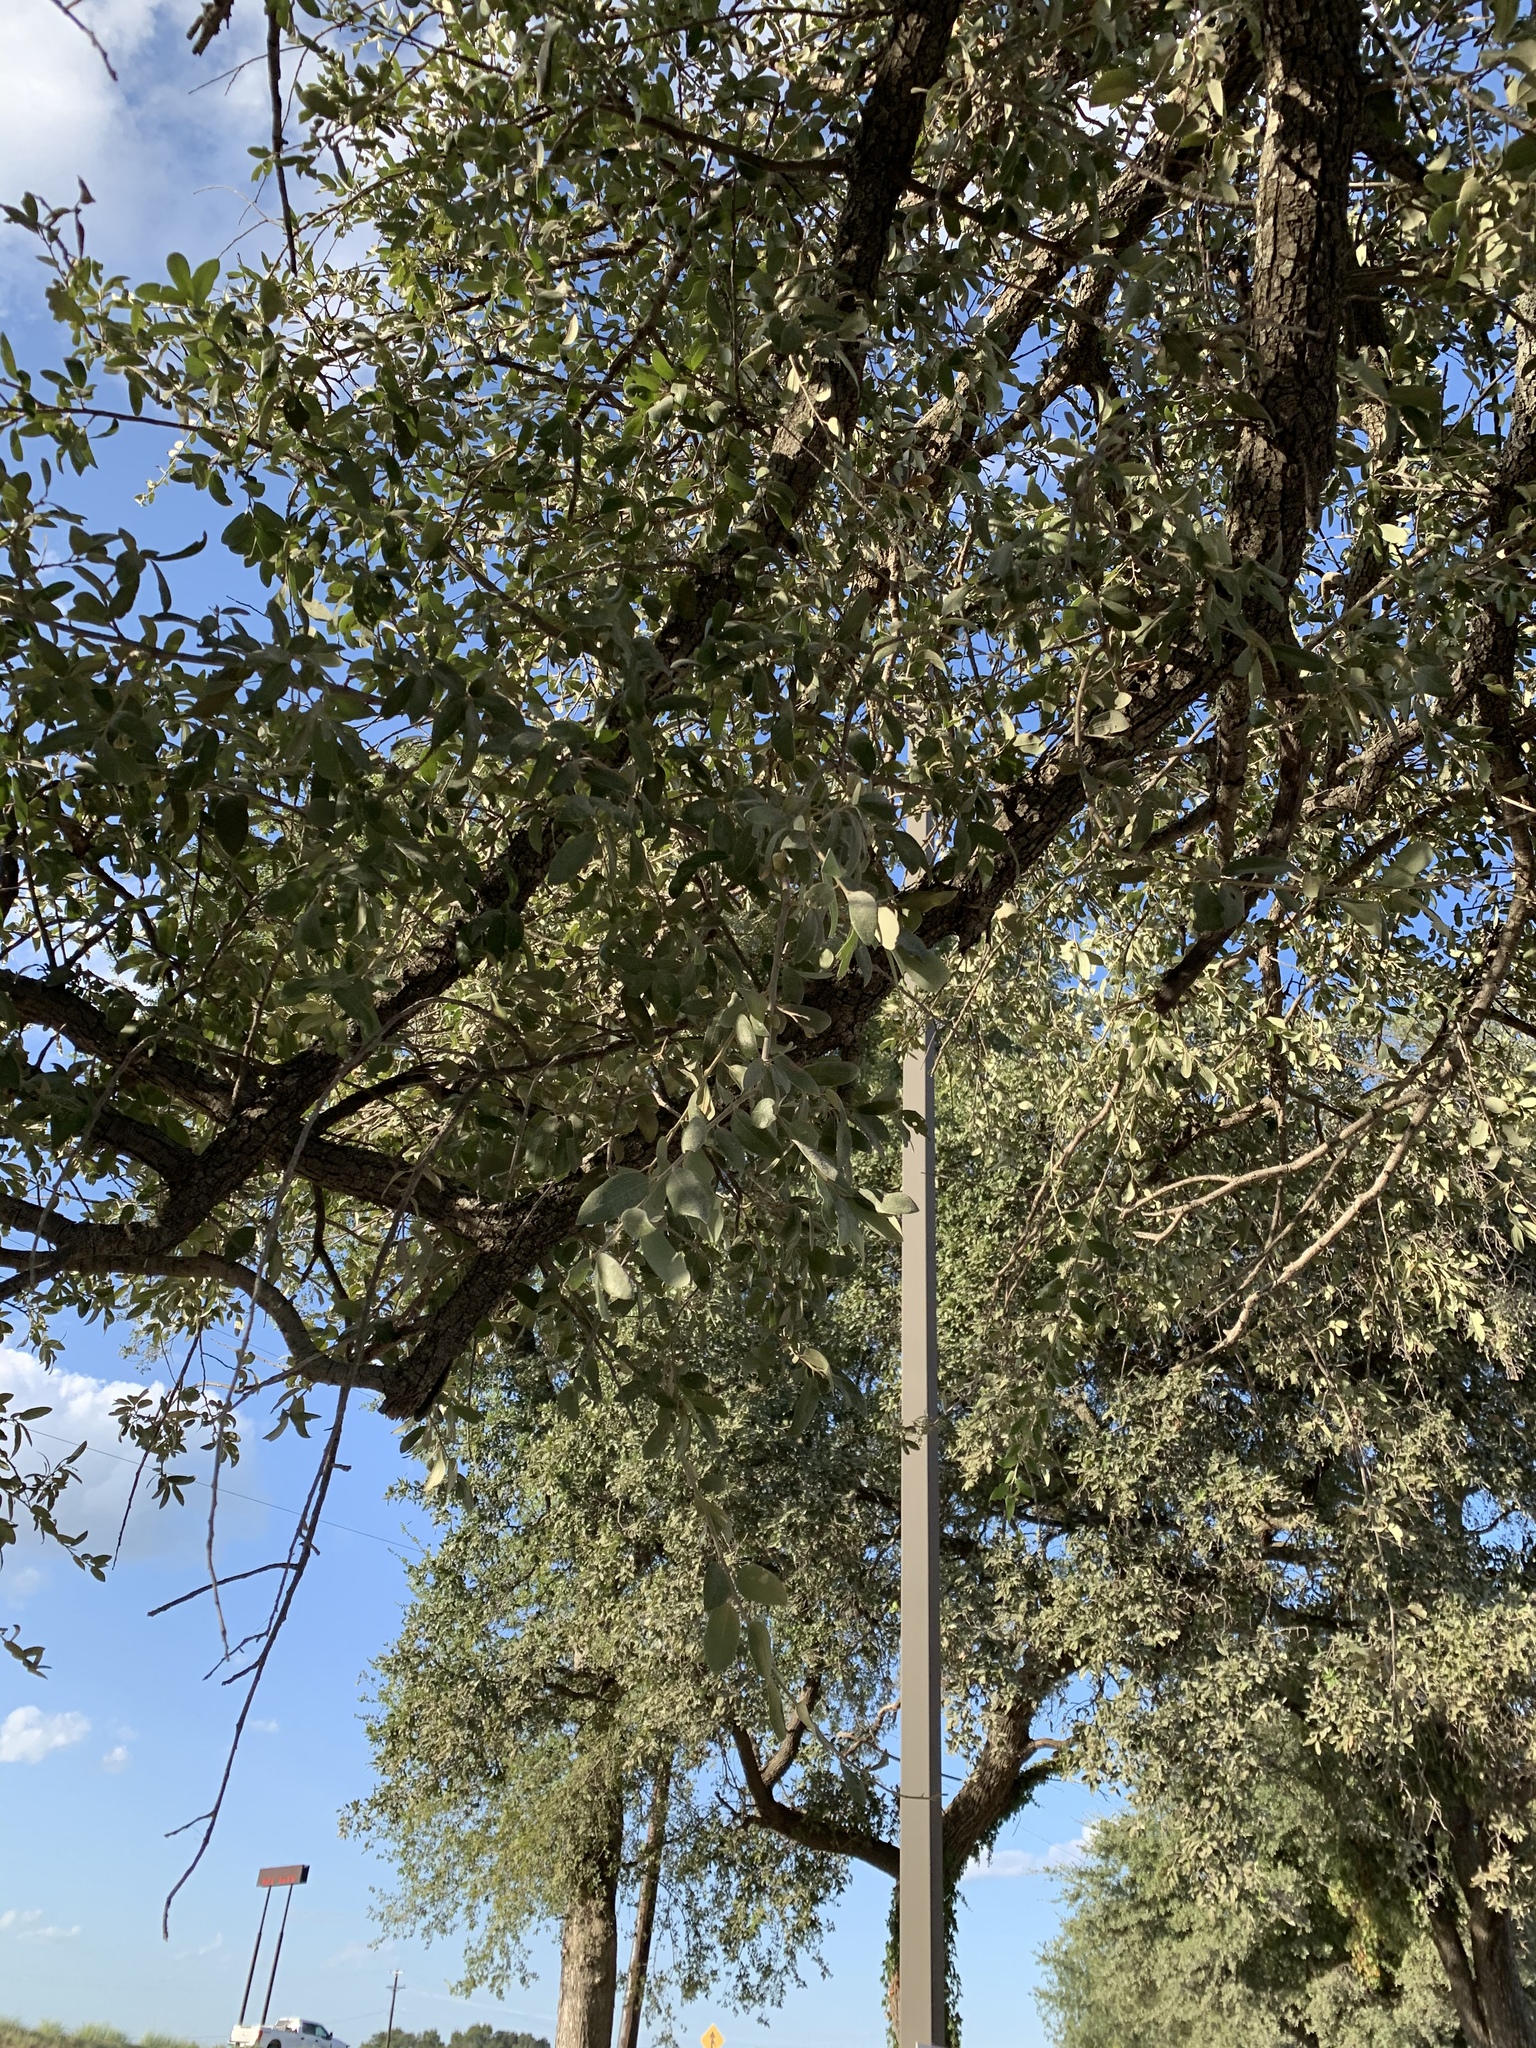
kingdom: Plantae
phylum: Tracheophyta
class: Magnoliopsida
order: Fagales
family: Fagaceae
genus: Quercus
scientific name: Quercus fusiformis
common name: Texas live oak
